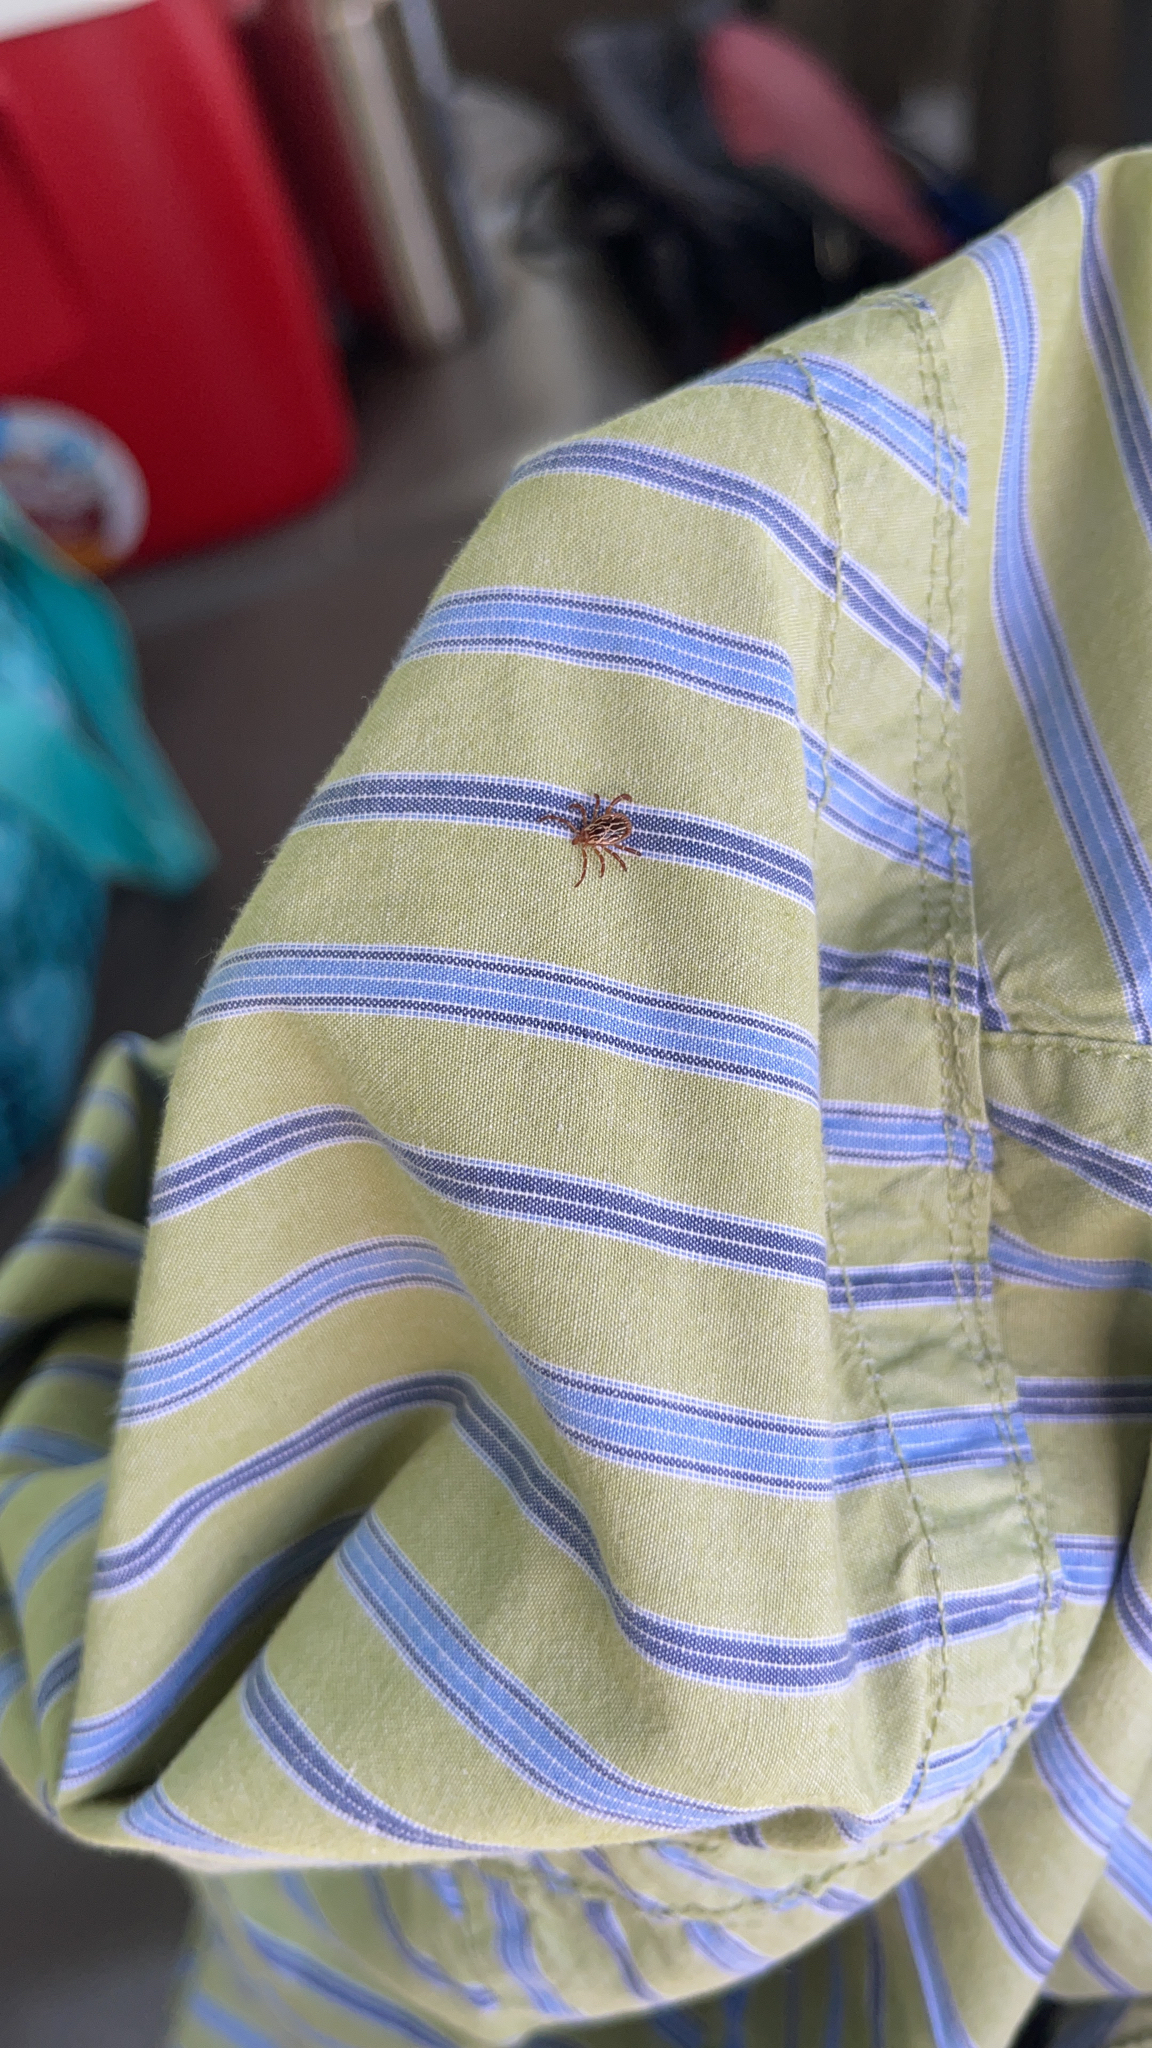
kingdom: Animalia
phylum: Arthropoda
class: Arachnida
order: Ixodida
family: Ixodidae
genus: Amblyomma
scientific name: Amblyomma maculatum
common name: Gulf coast tick
